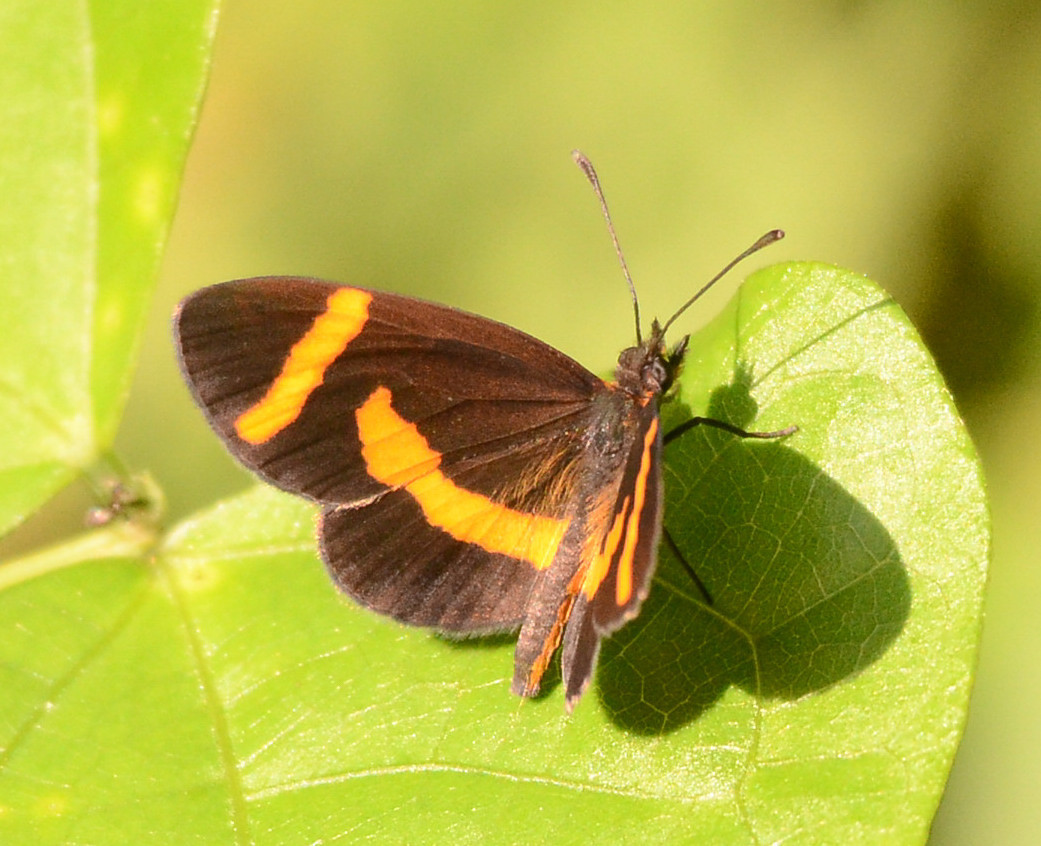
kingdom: Animalia
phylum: Arthropoda
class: Insecta
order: Lepidoptera
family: Nymphalidae
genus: Microtia
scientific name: Microtia elva
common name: Elf
